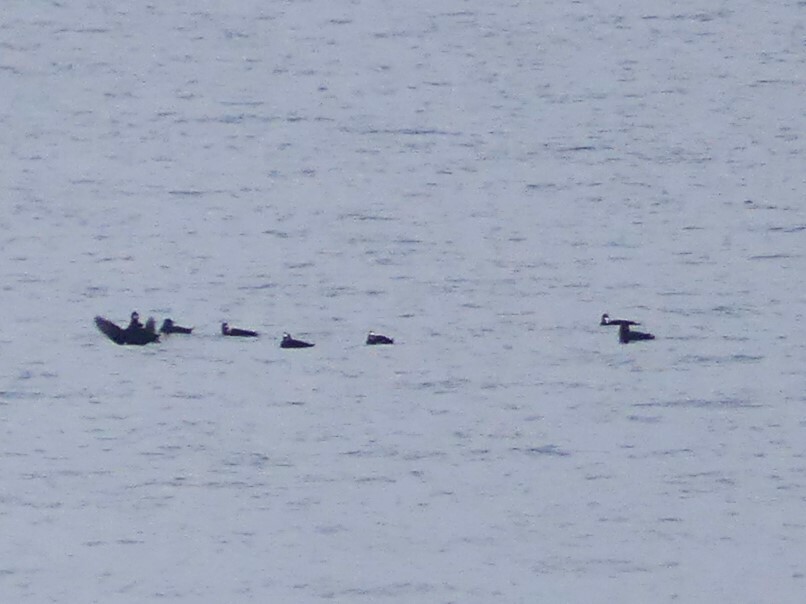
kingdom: Animalia
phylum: Chordata
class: Aves
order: Anseriformes
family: Anatidae
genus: Melanitta
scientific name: Melanitta perspicillata
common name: Surf scoter
